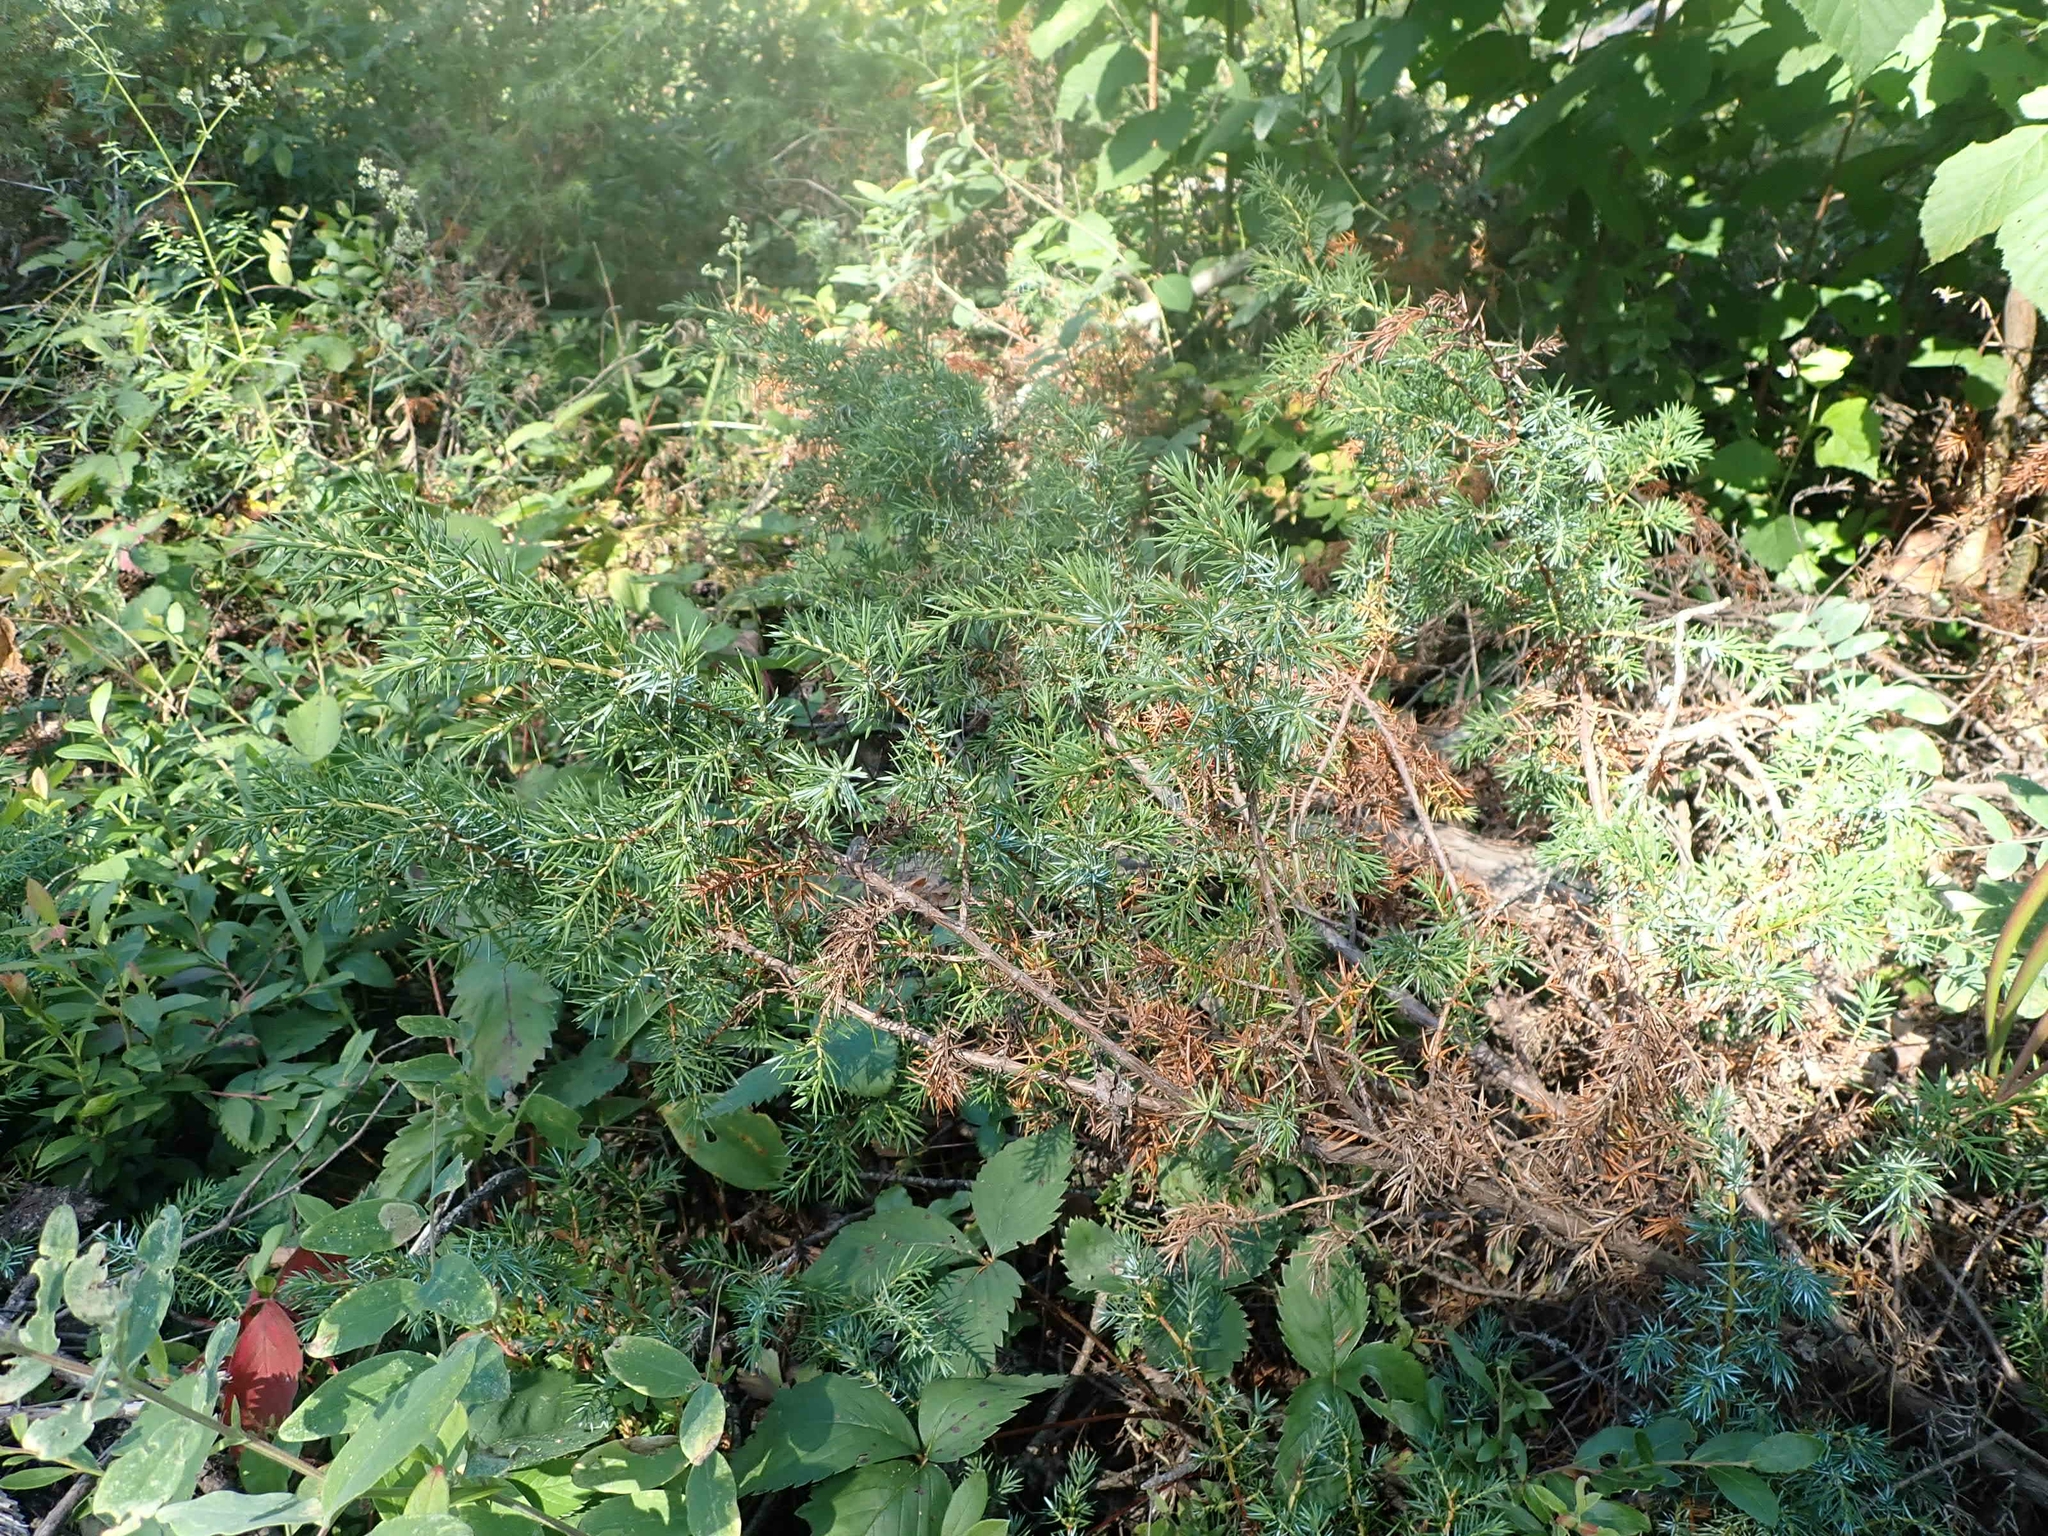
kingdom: Plantae
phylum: Tracheophyta
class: Pinopsida
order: Pinales
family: Cupressaceae
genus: Juniperus
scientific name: Juniperus communis
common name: Common juniper
